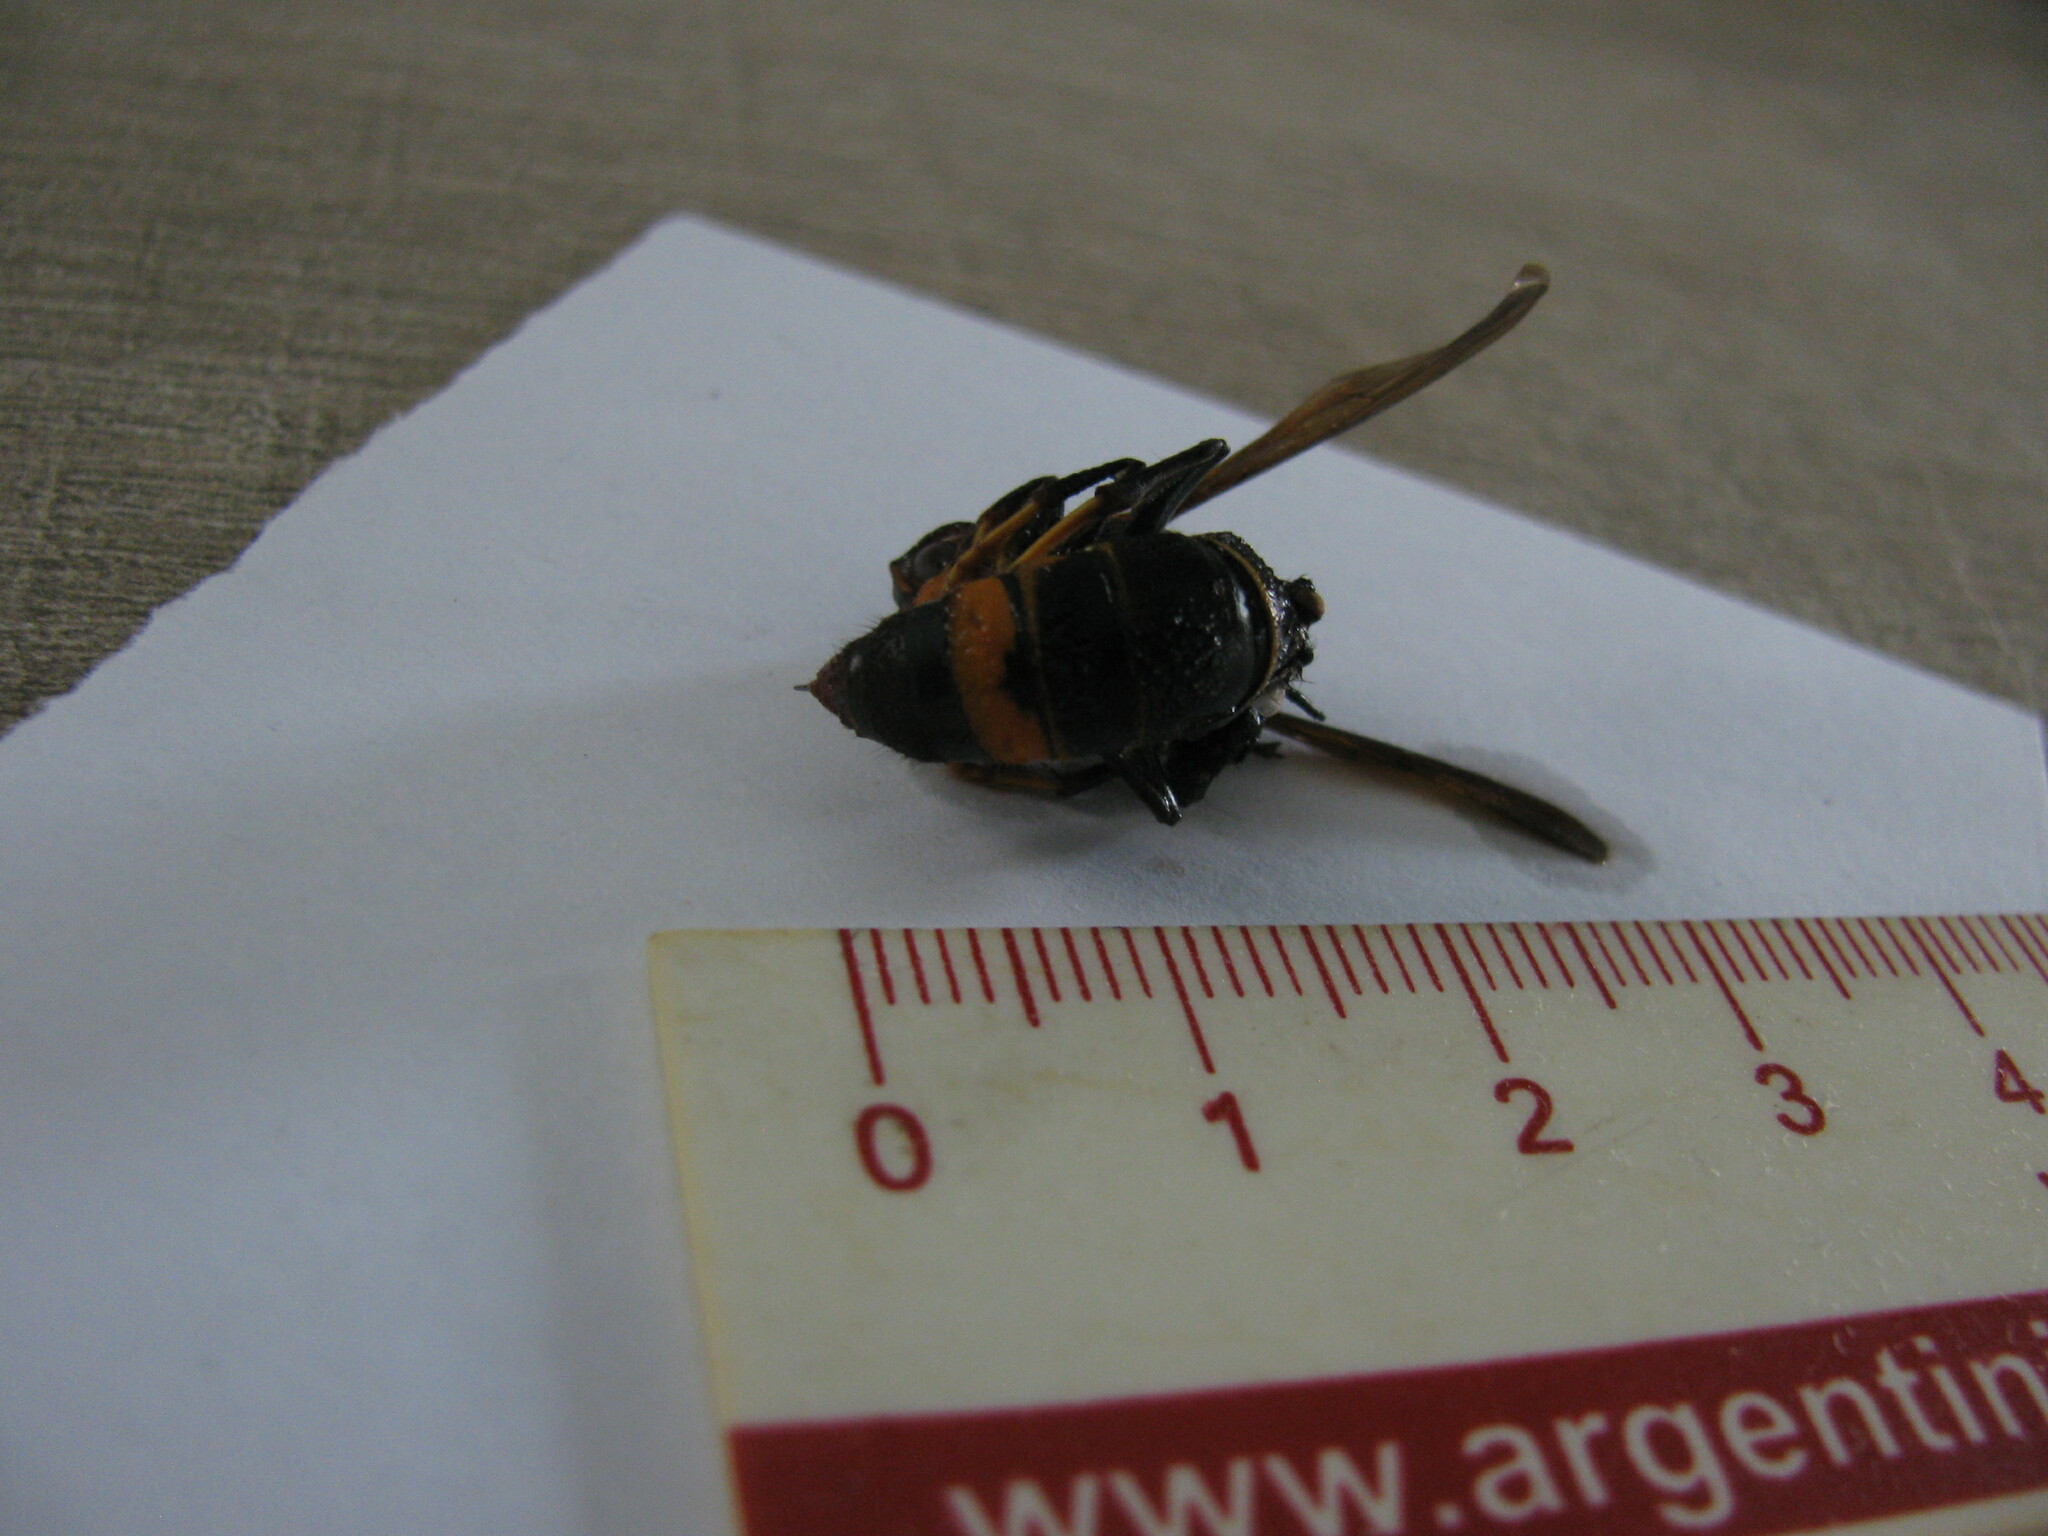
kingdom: Animalia
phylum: Arthropoda
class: Insecta
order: Hymenoptera
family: Vespidae
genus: Vespa
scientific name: Vespa velutina
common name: Asian hornet
